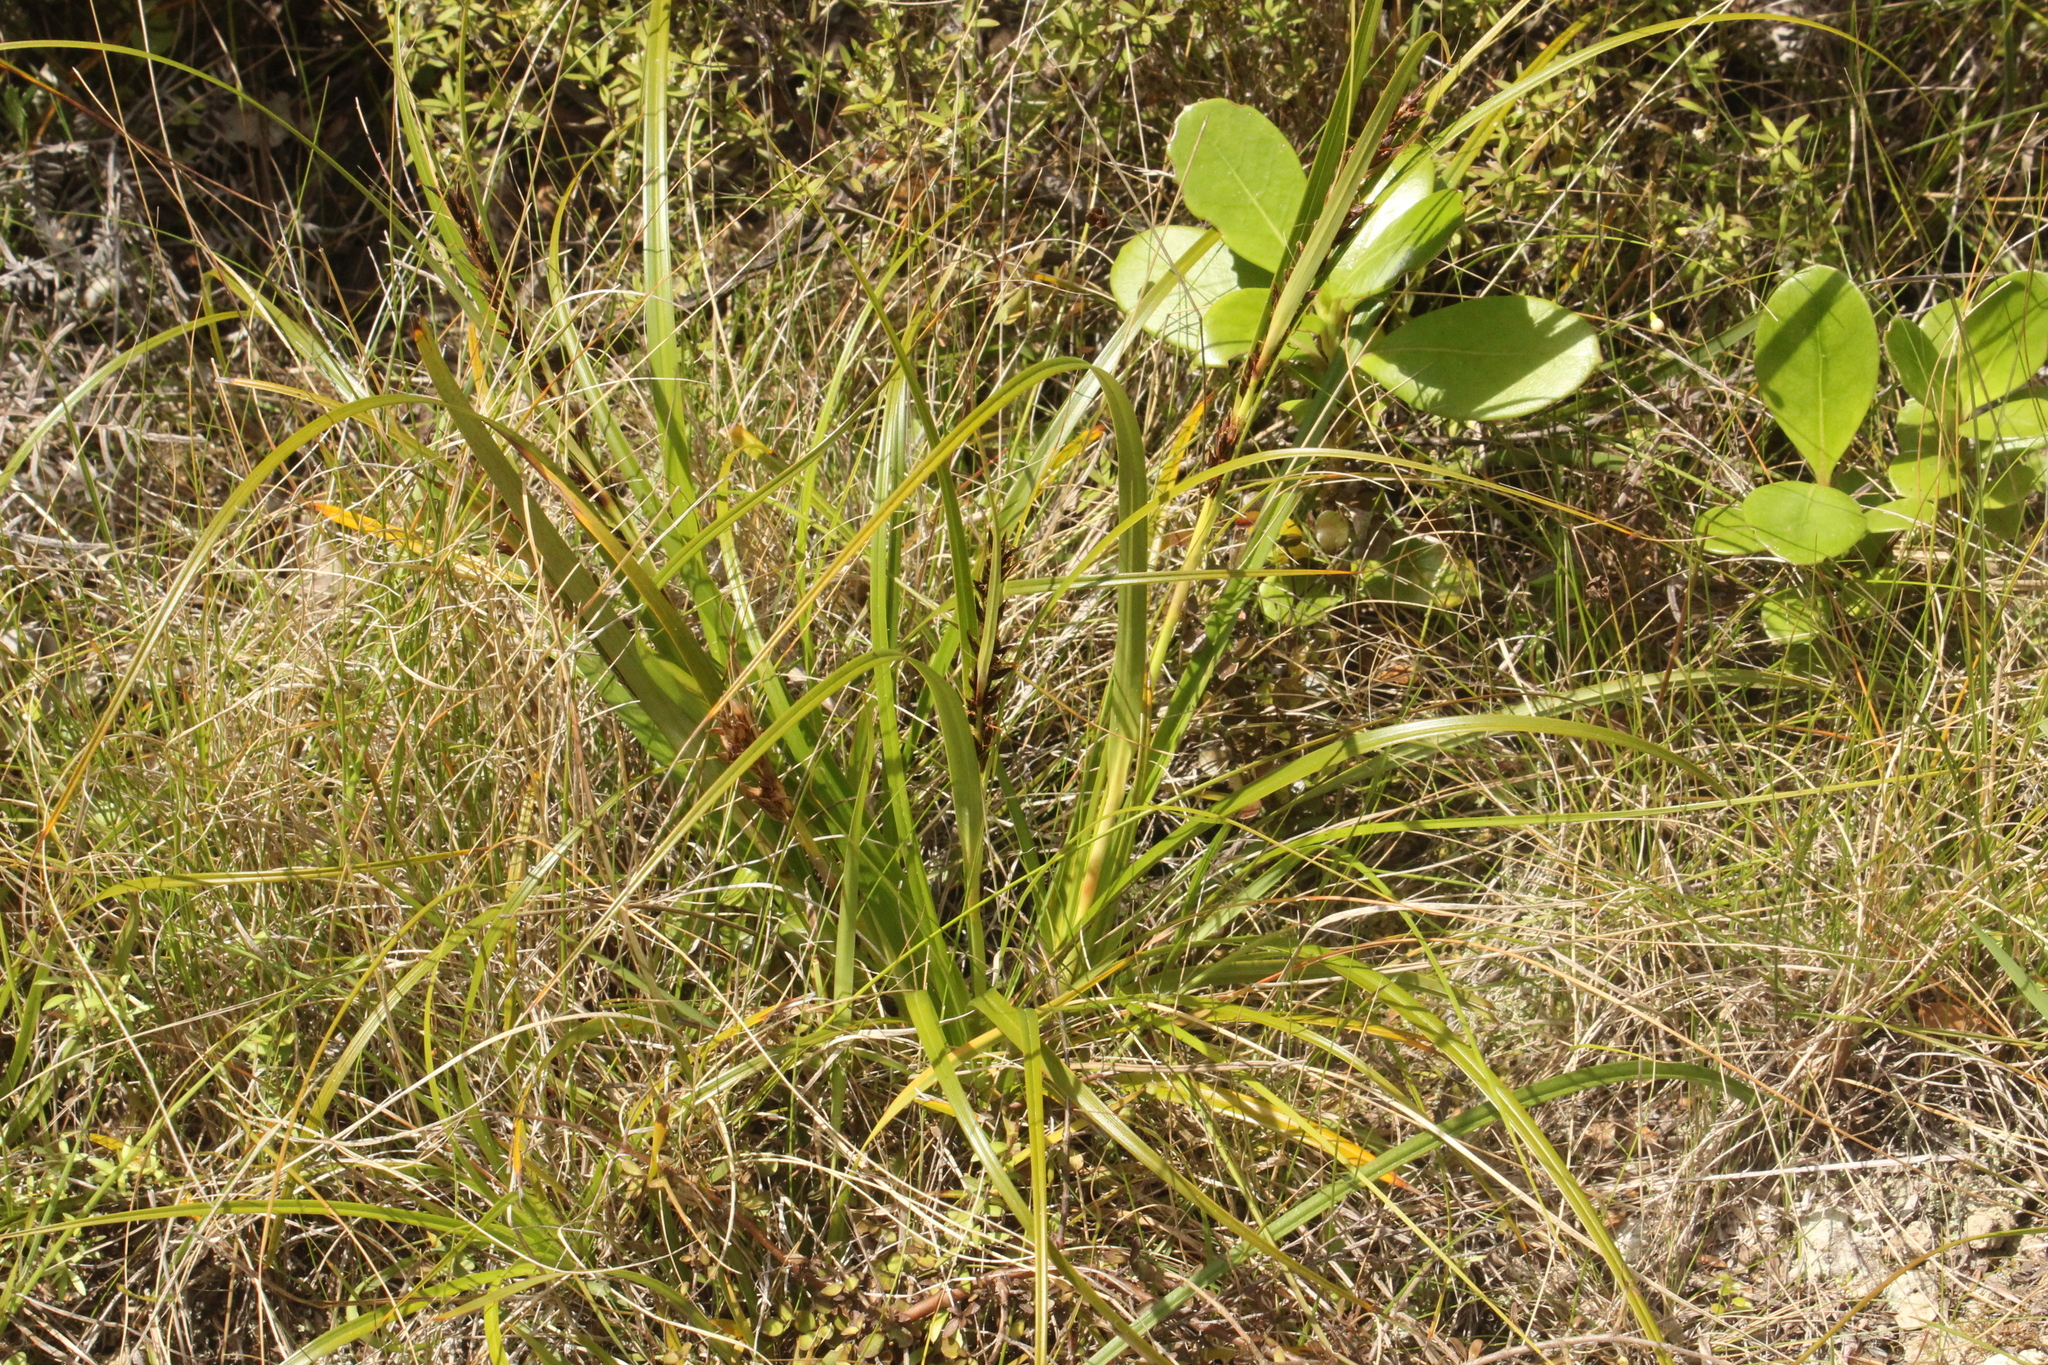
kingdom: Plantae
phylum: Tracheophyta
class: Liliopsida
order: Poales
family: Cyperaceae
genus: Morelotia
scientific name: Morelotia affinis
